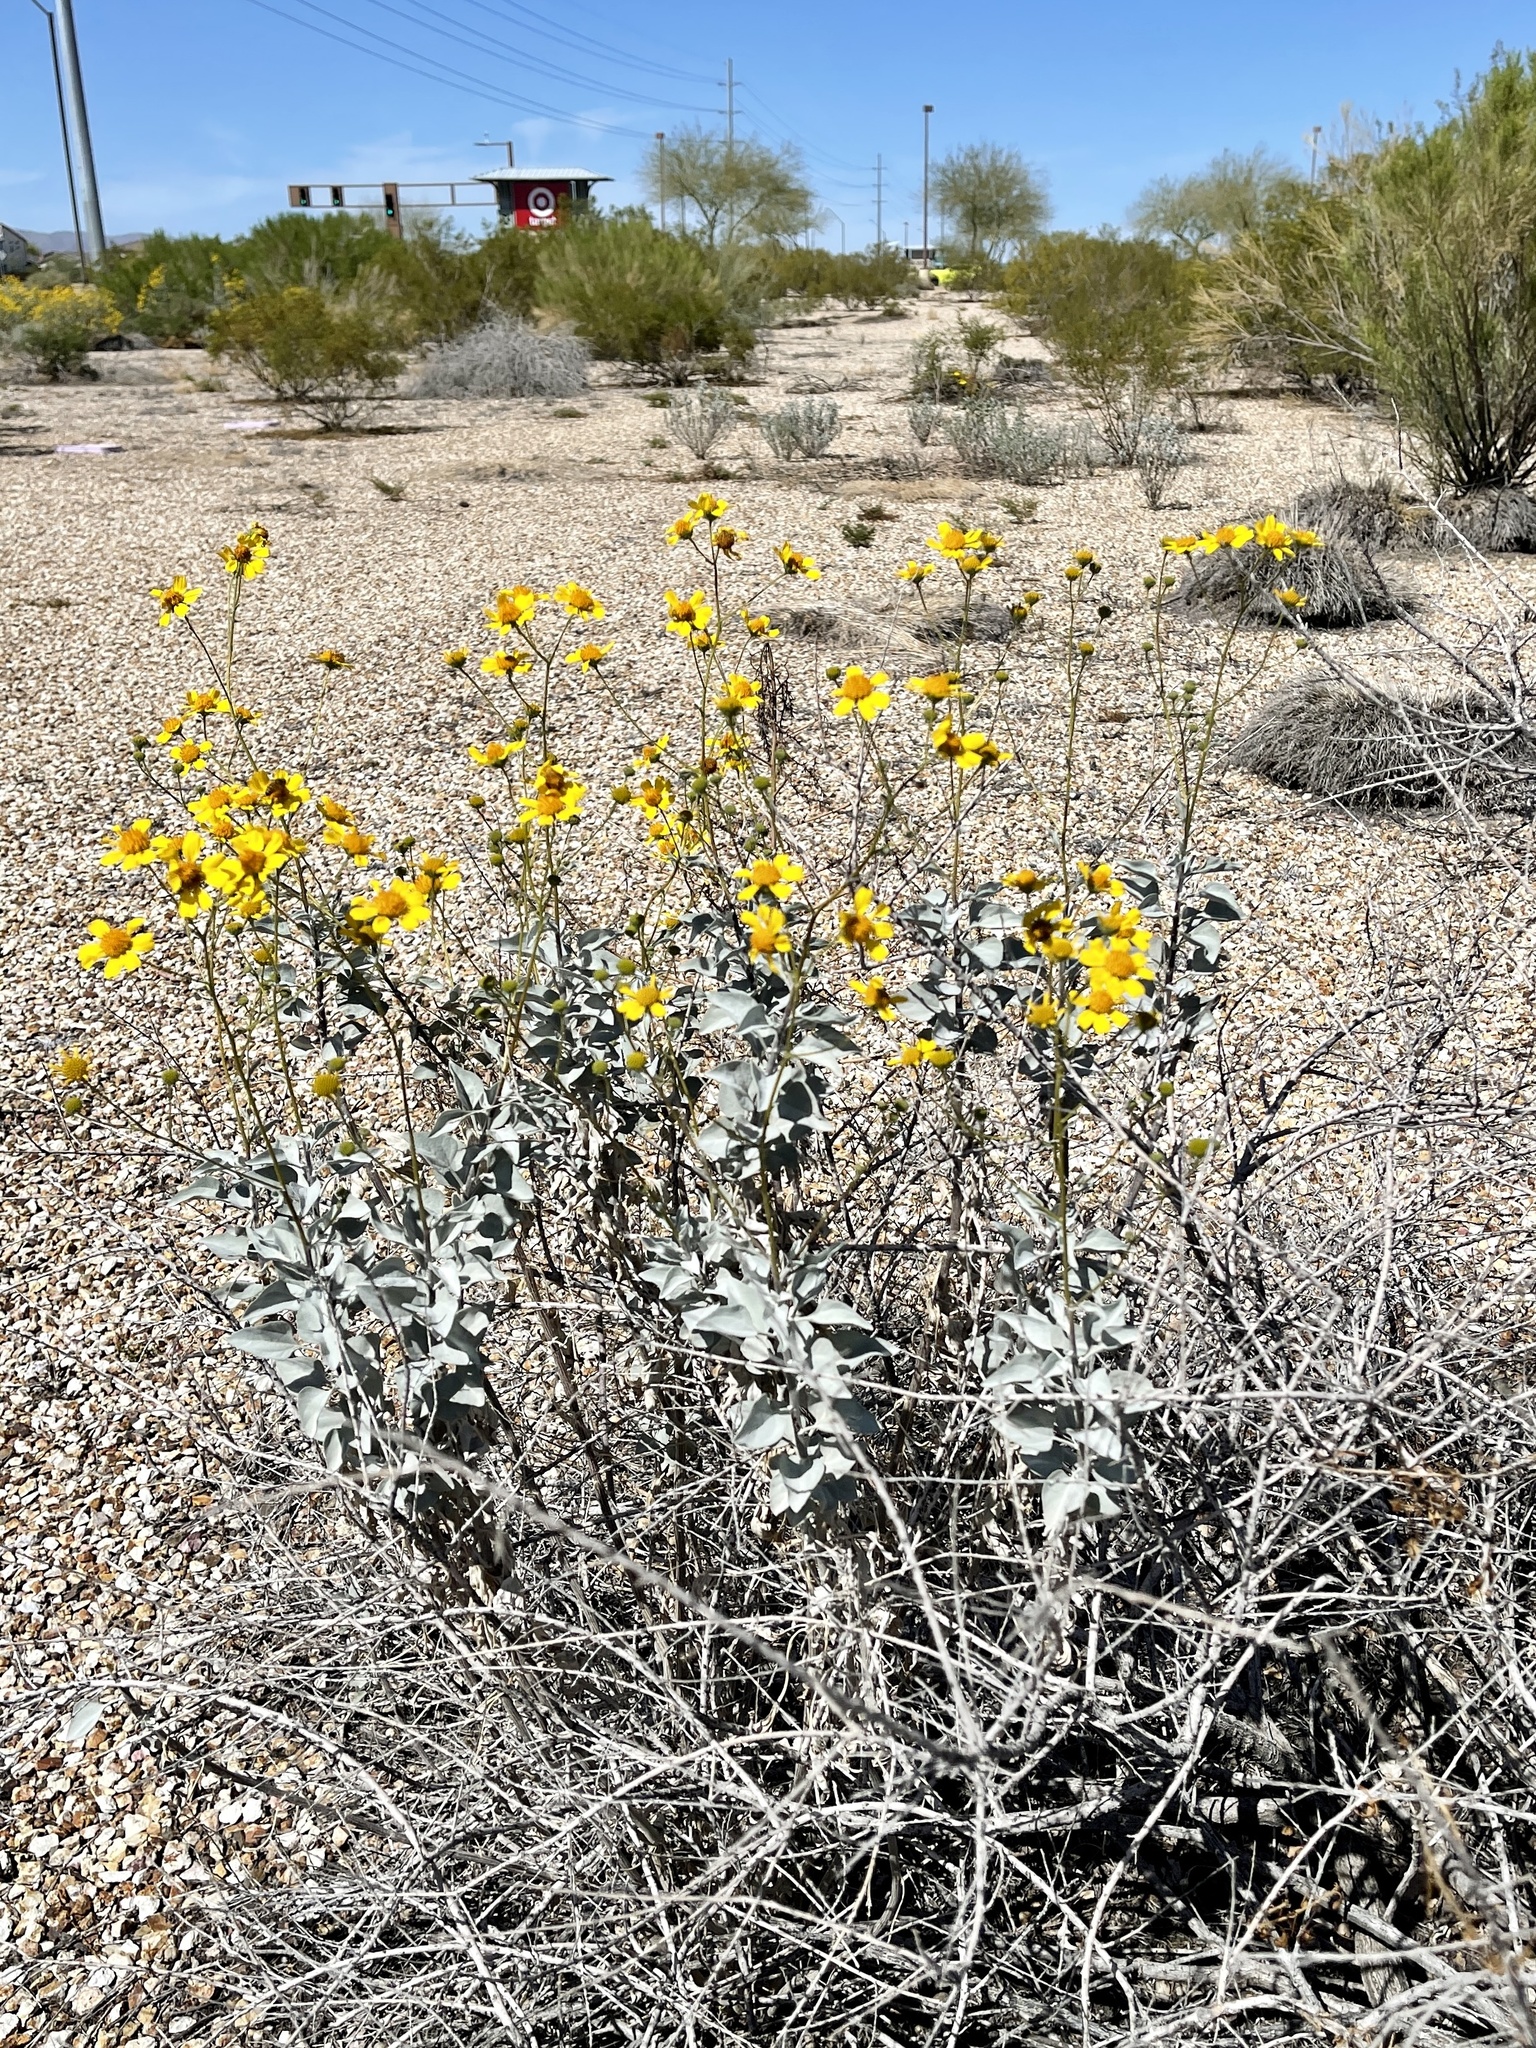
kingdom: Plantae
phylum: Tracheophyta
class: Magnoliopsida
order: Asterales
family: Asteraceae
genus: Encelia
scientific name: Encelia farinosa
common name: Brittlebush
